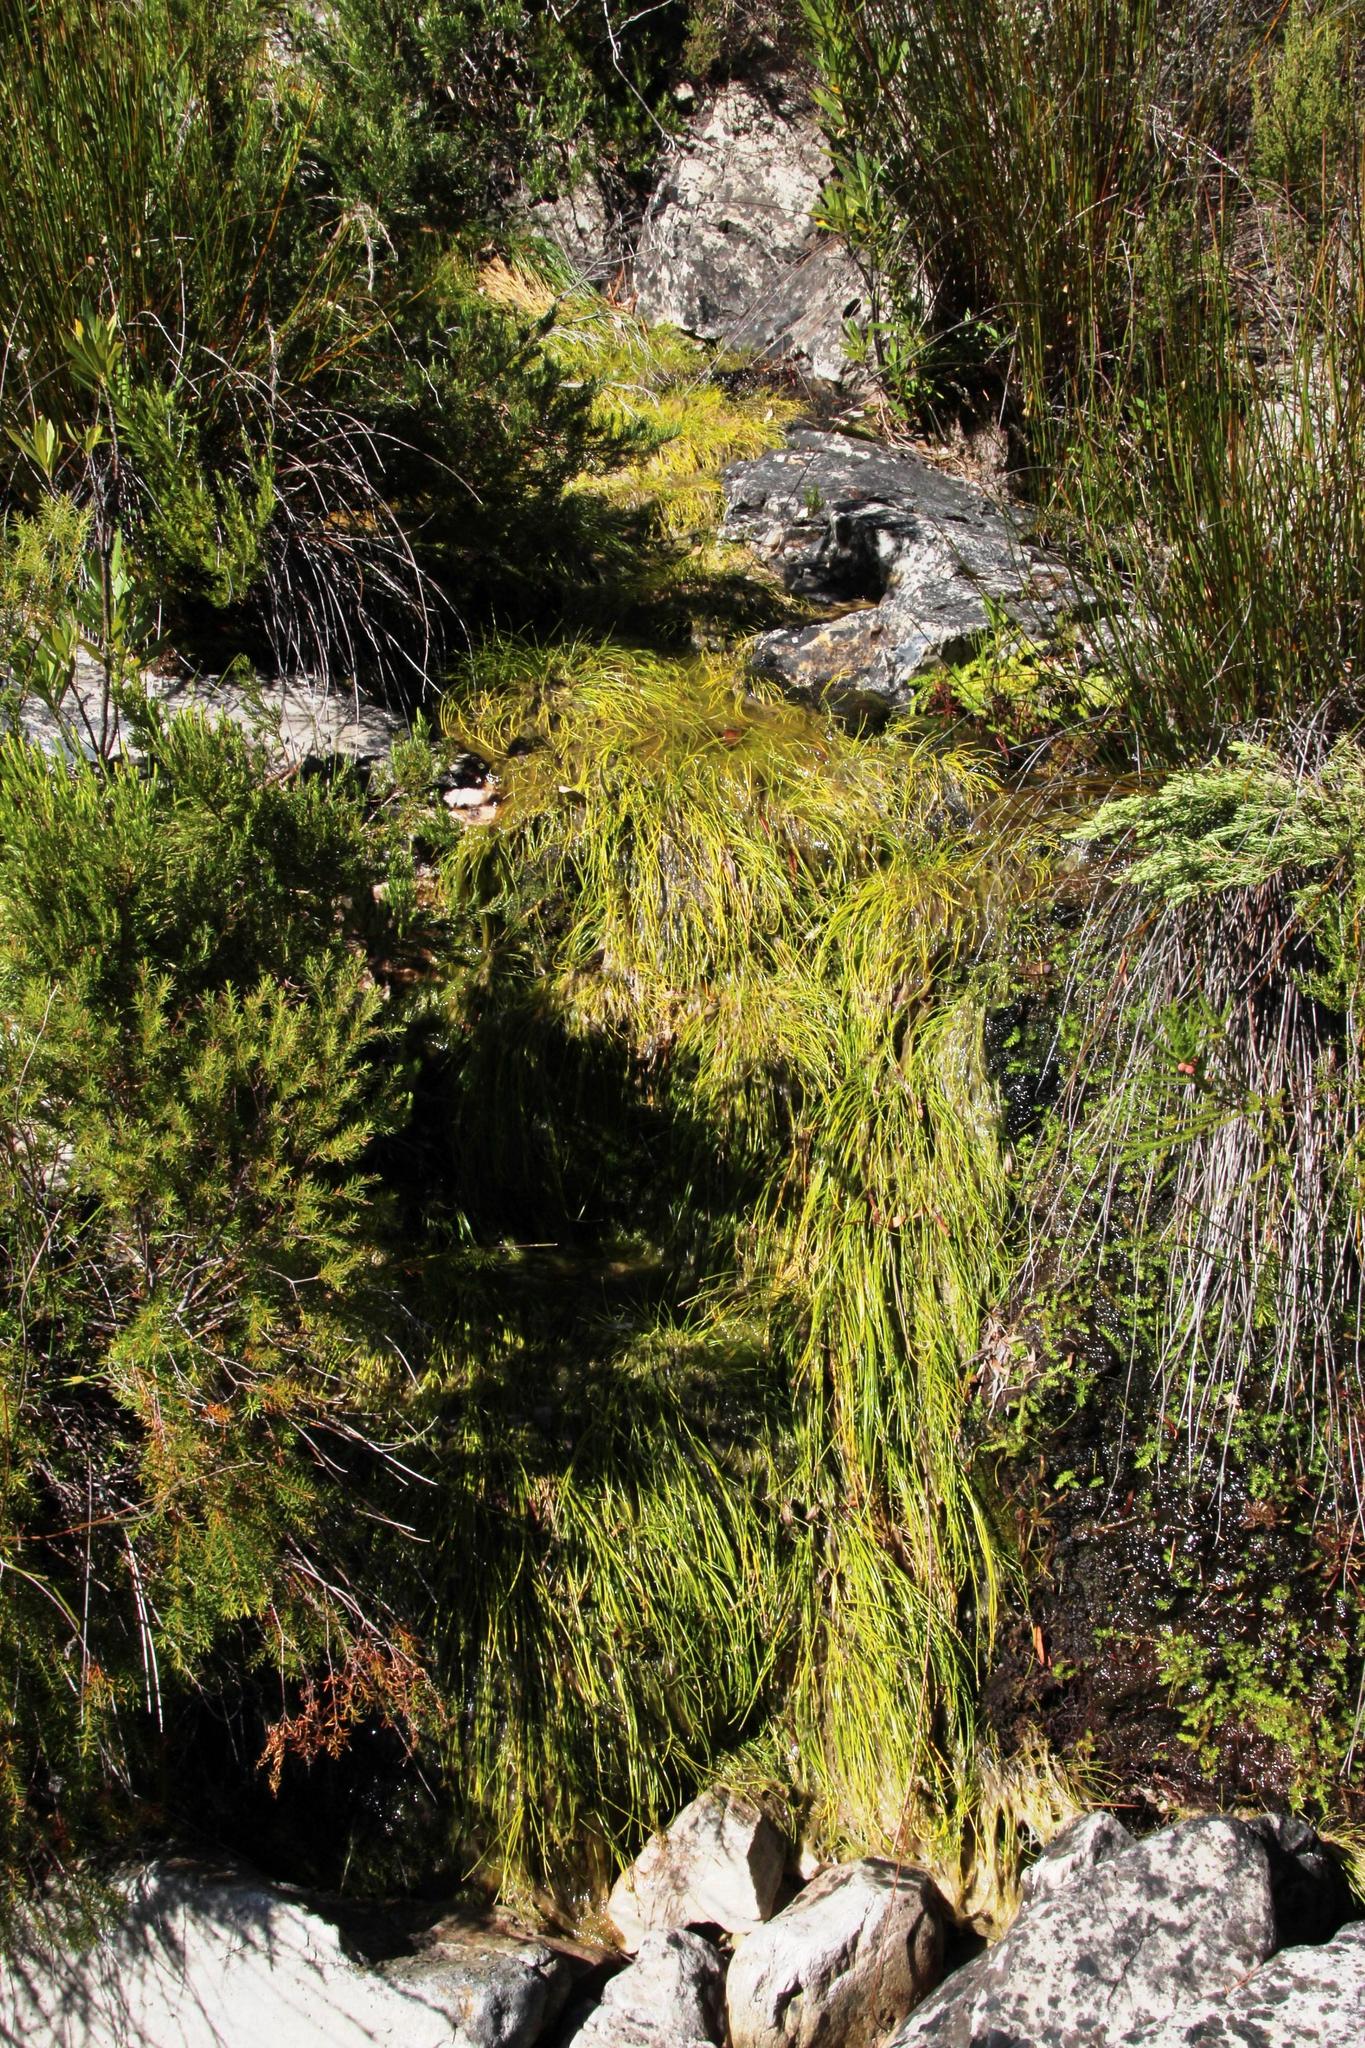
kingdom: Plantae
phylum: Tracheophyta
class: Liliopsida
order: Poales
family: Cyperaceae
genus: Isolepis
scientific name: Isolepis digitata
